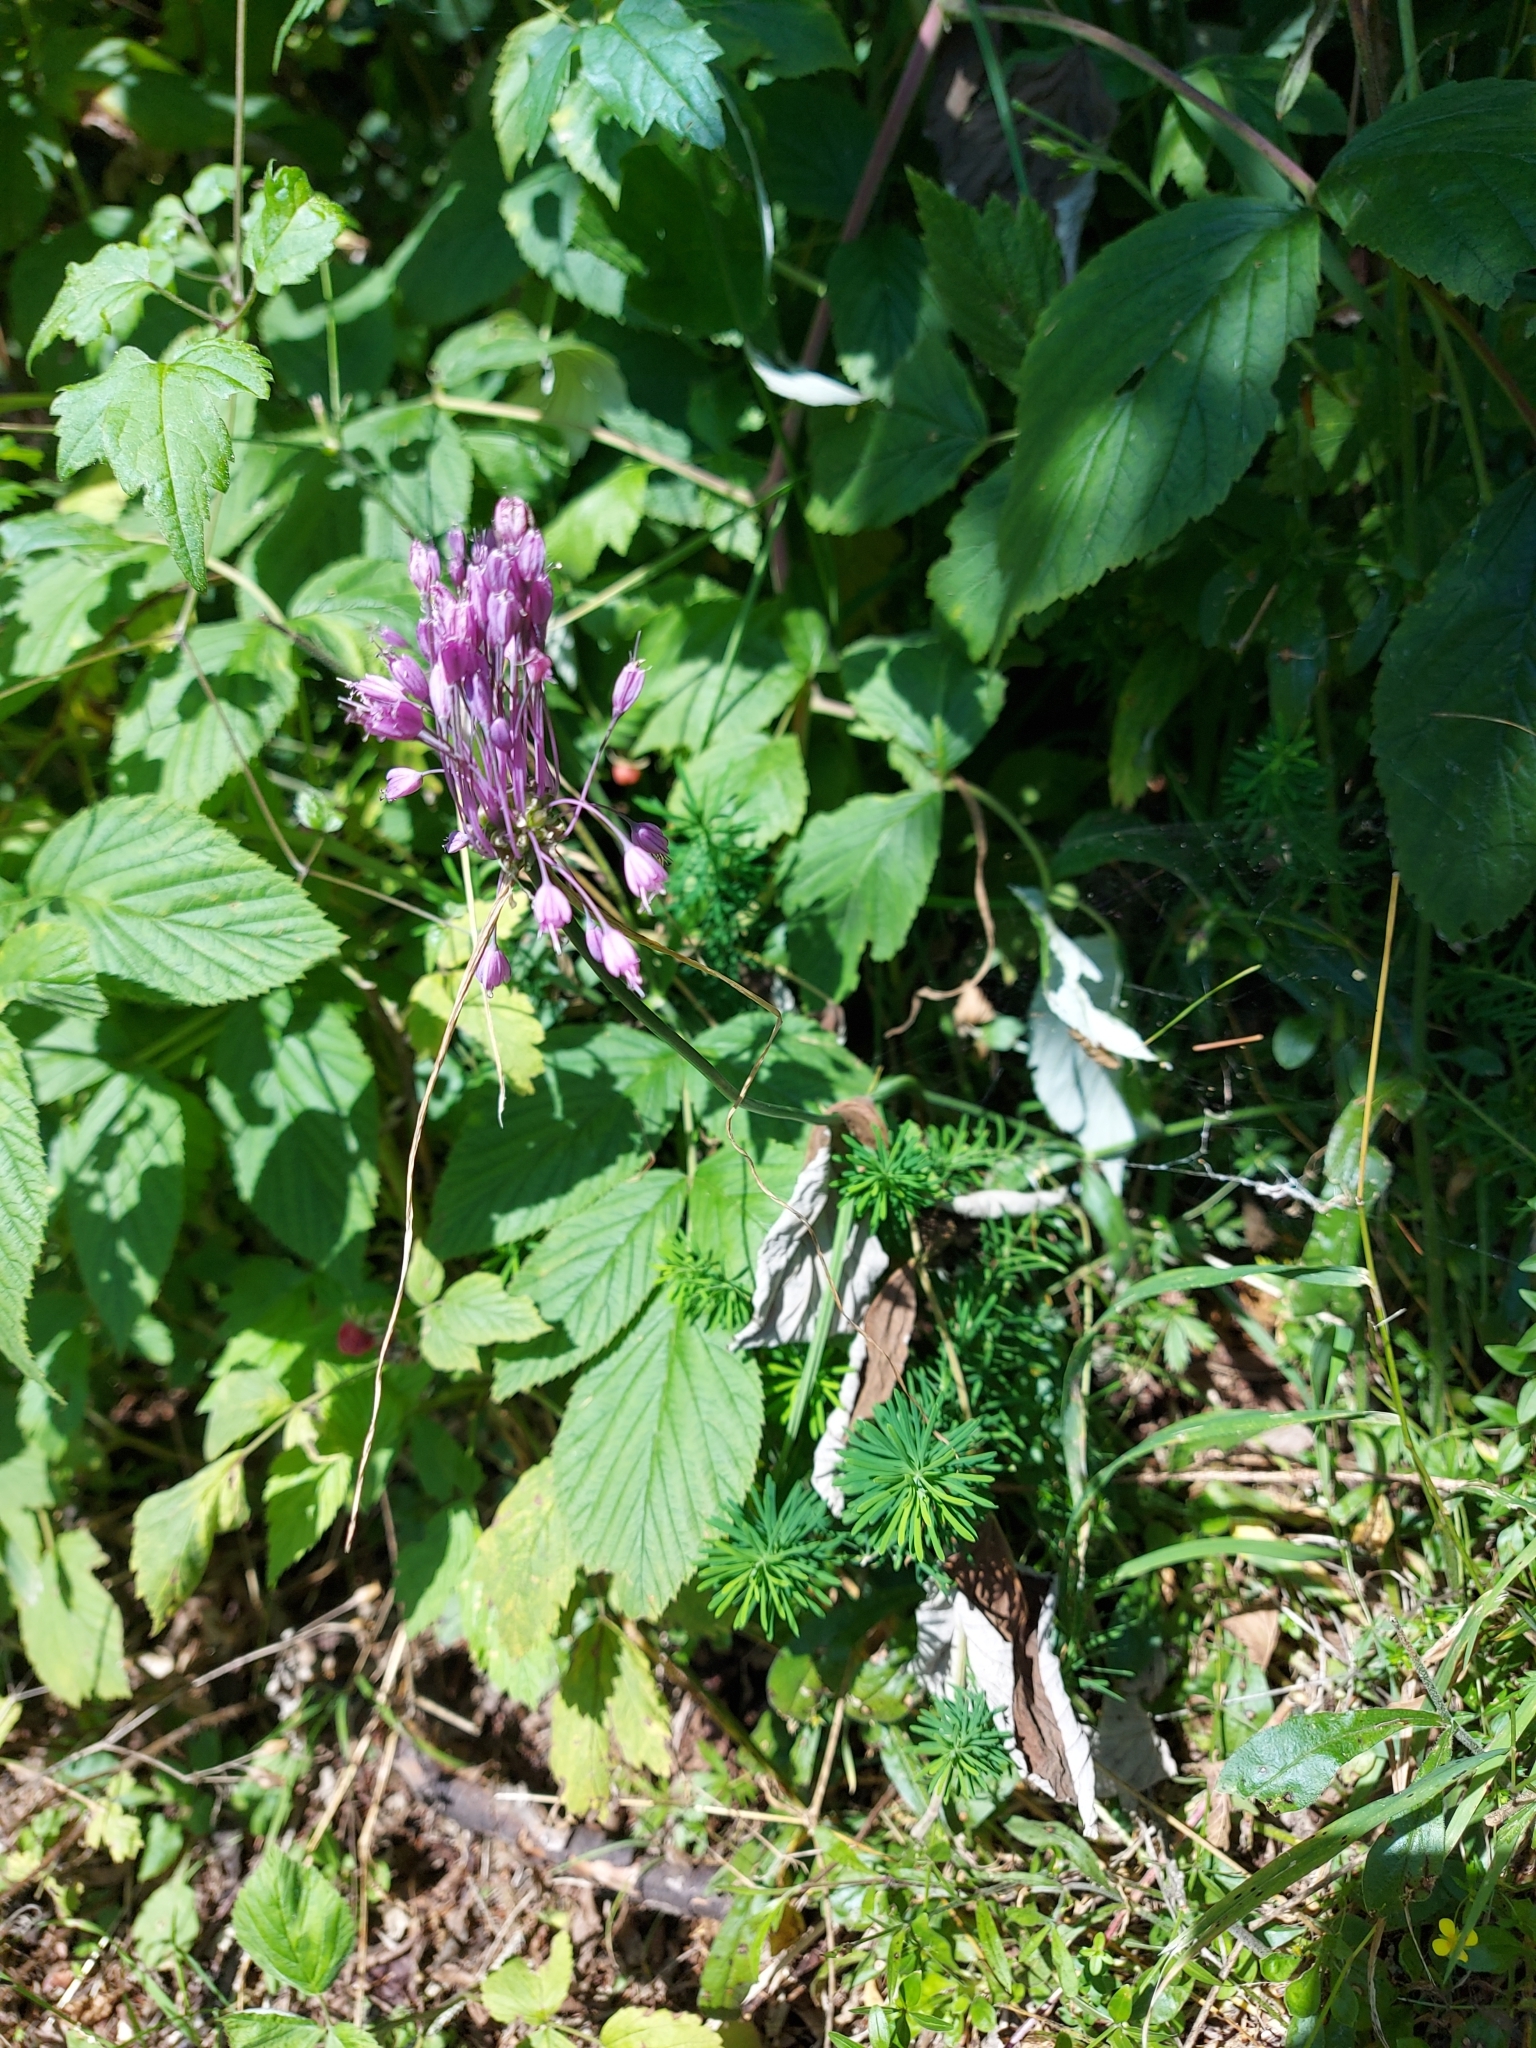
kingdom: Plantae
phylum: Tracheophyta
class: Liliopsida
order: Asparagales
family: Amaryllidaceae
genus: Allium
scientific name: Allium carinatum
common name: Keeled garlic
